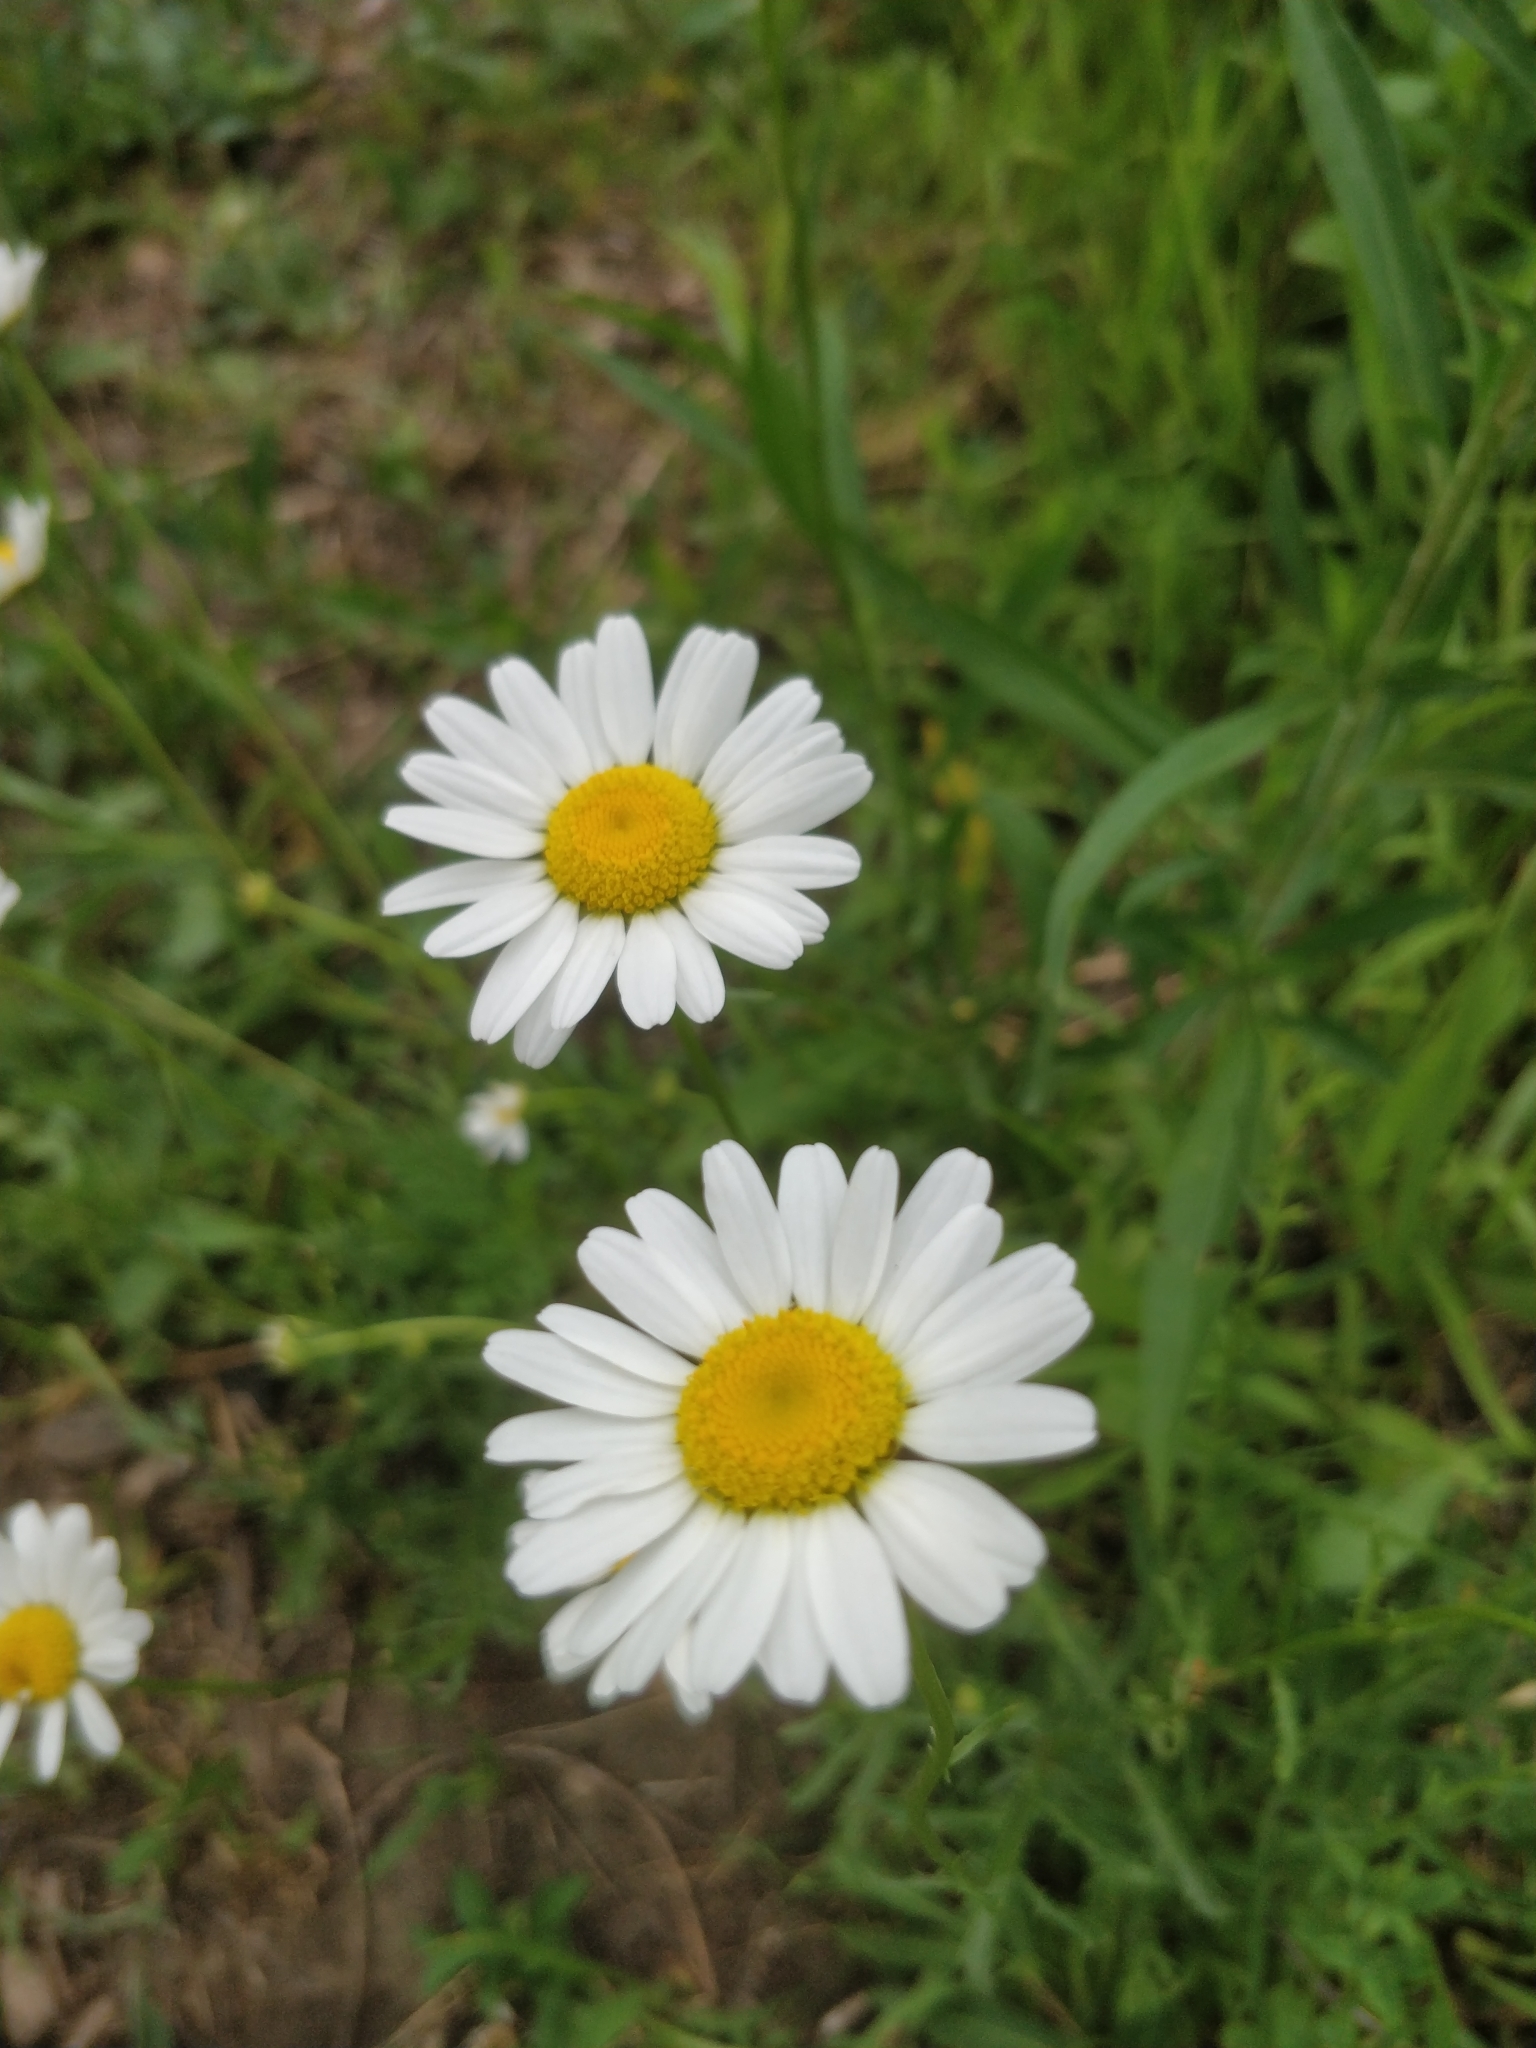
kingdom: Plantae
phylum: Tracheophyta
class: Magnoliopsida
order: Asterales
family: Asteraceae
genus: Leucanthemum
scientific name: Leucanthemum vulgare
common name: Oxeye daisy
